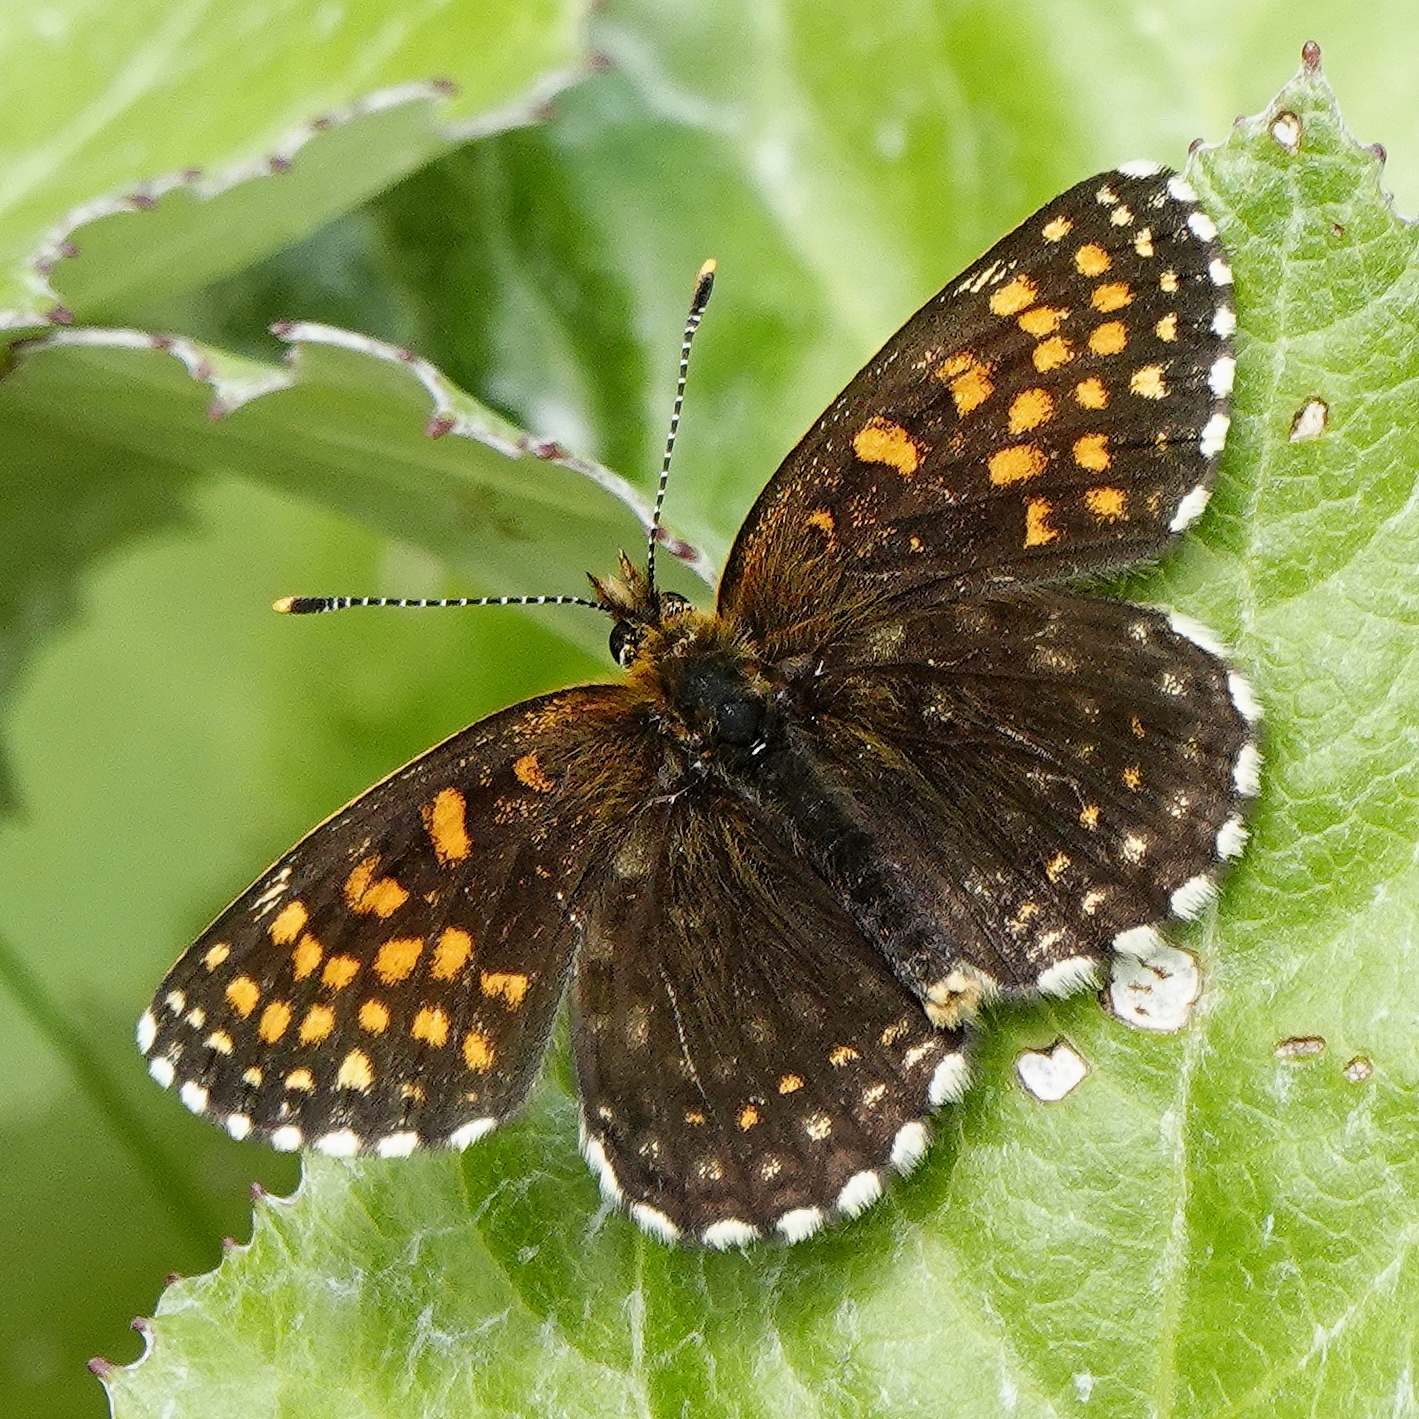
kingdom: Animalia
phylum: Arthropoda
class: Insecta
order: Lepidoptera
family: Nymphalidae
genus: Melitaea
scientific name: Melitaea diamina
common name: False heath fritillary
